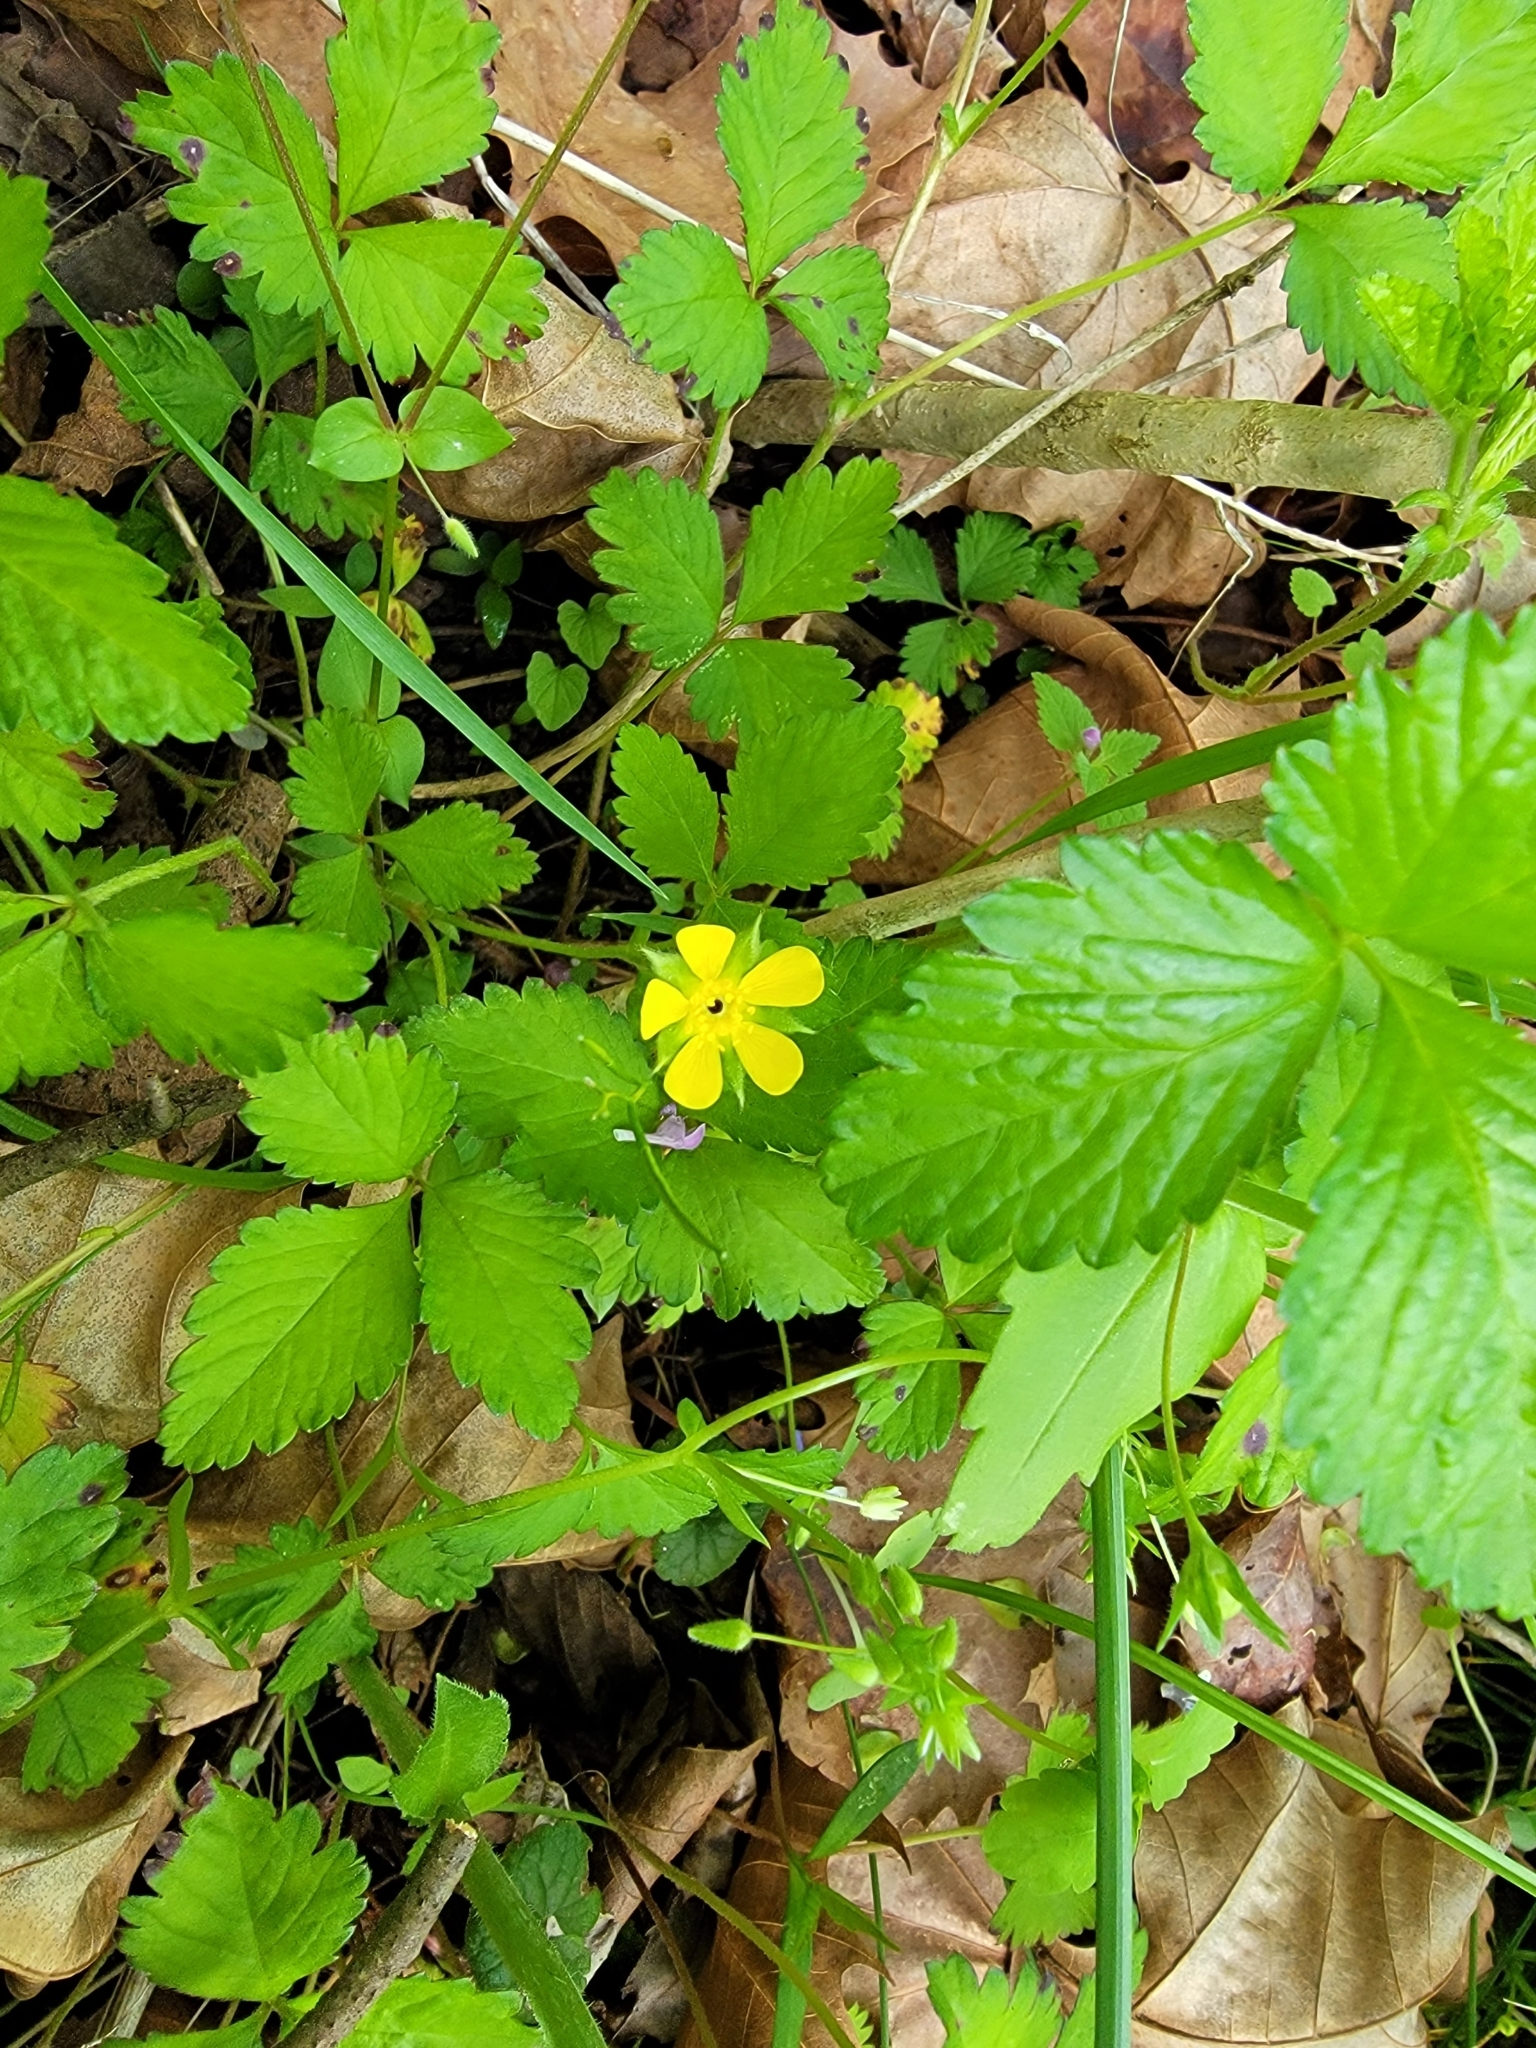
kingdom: Plantae
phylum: Tracheophyta
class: Magnoliopsida
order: Rosales
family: Rosaceae
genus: Potentilla
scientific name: Potentilla indica
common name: Yellow-flowered strawberry
